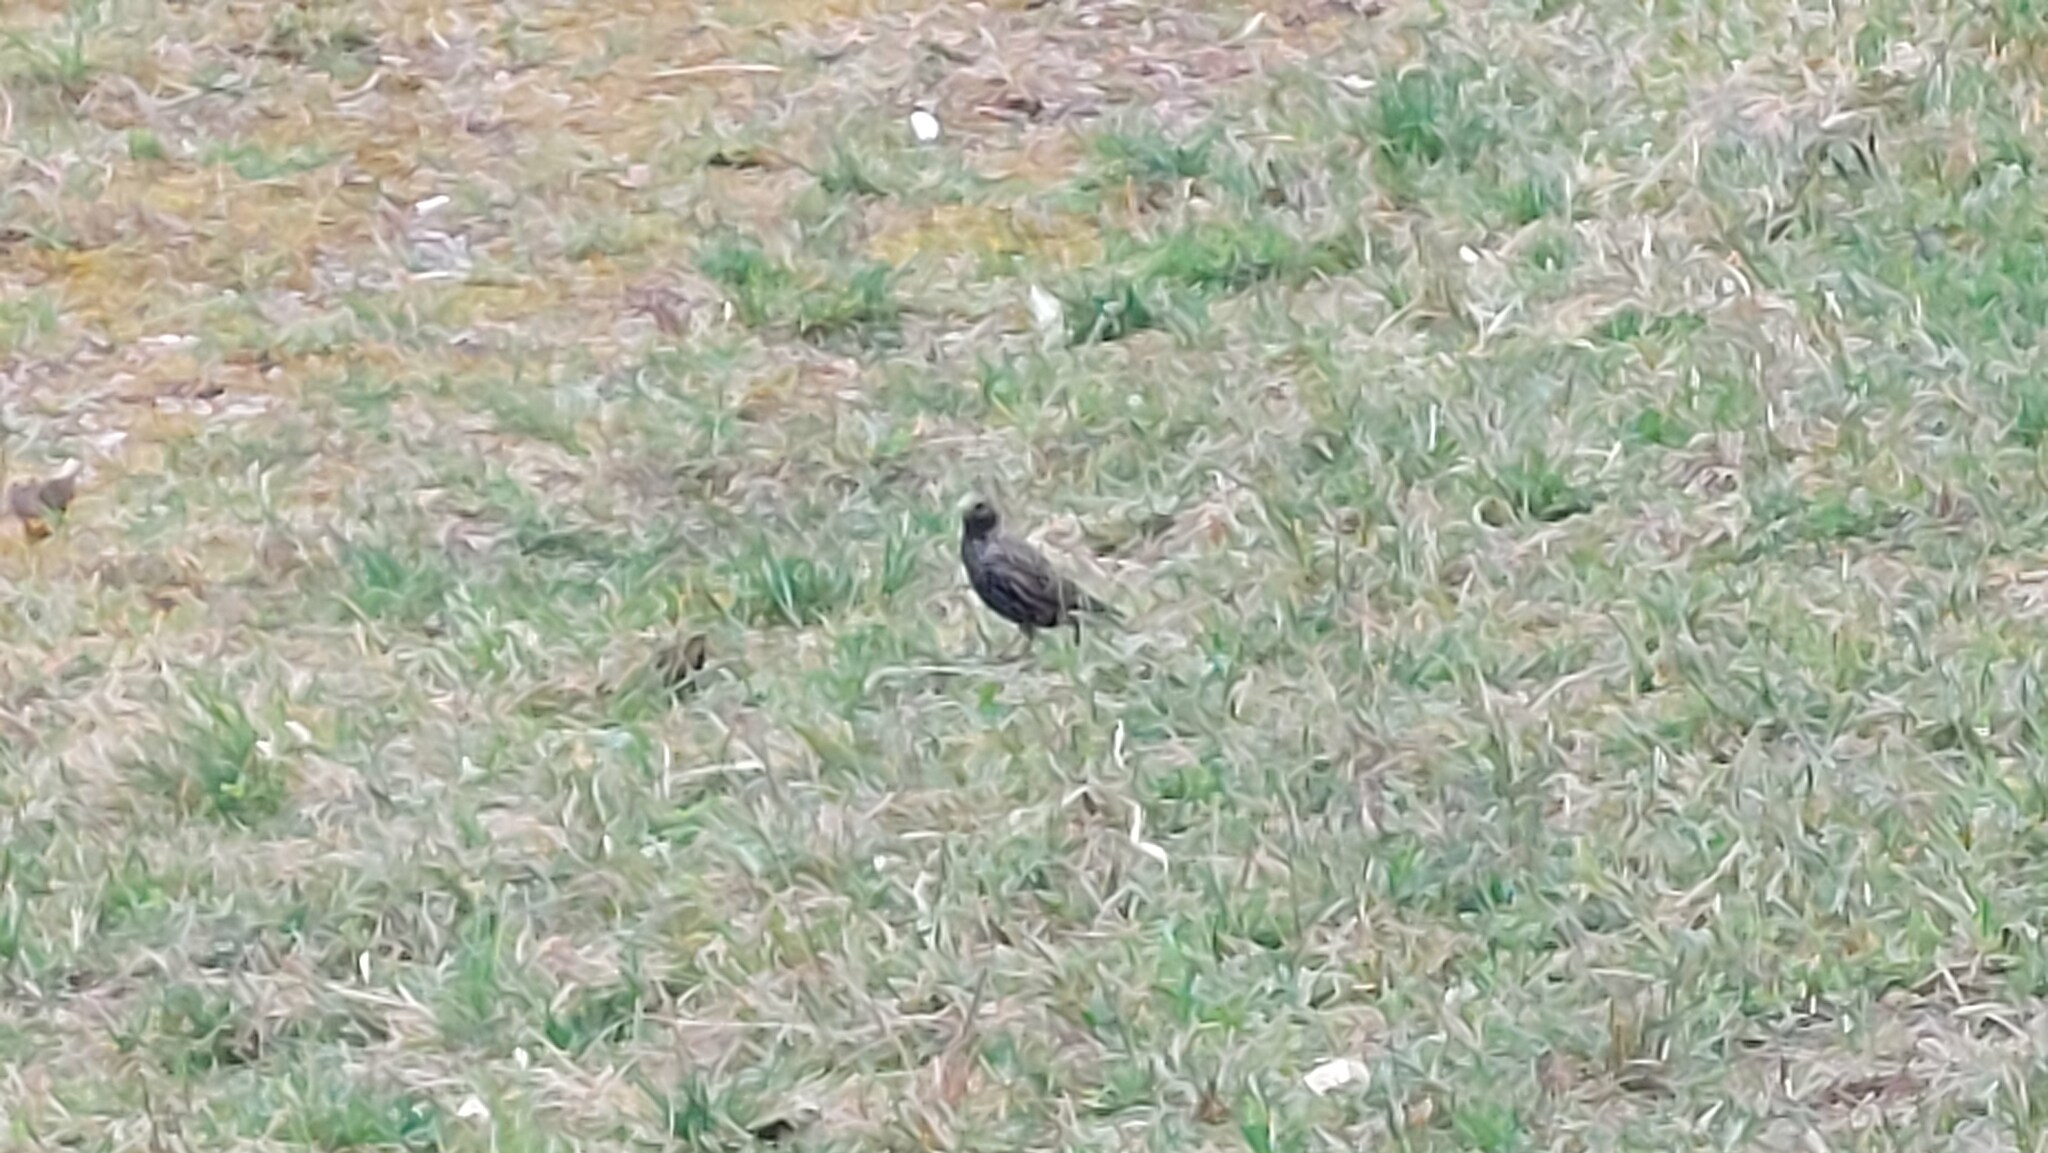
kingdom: Animalia
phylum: Chordata
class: Aves
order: Passeriformes
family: Sturnidae
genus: Sturnus
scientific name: Sturnus vulgaris
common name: Common starling
